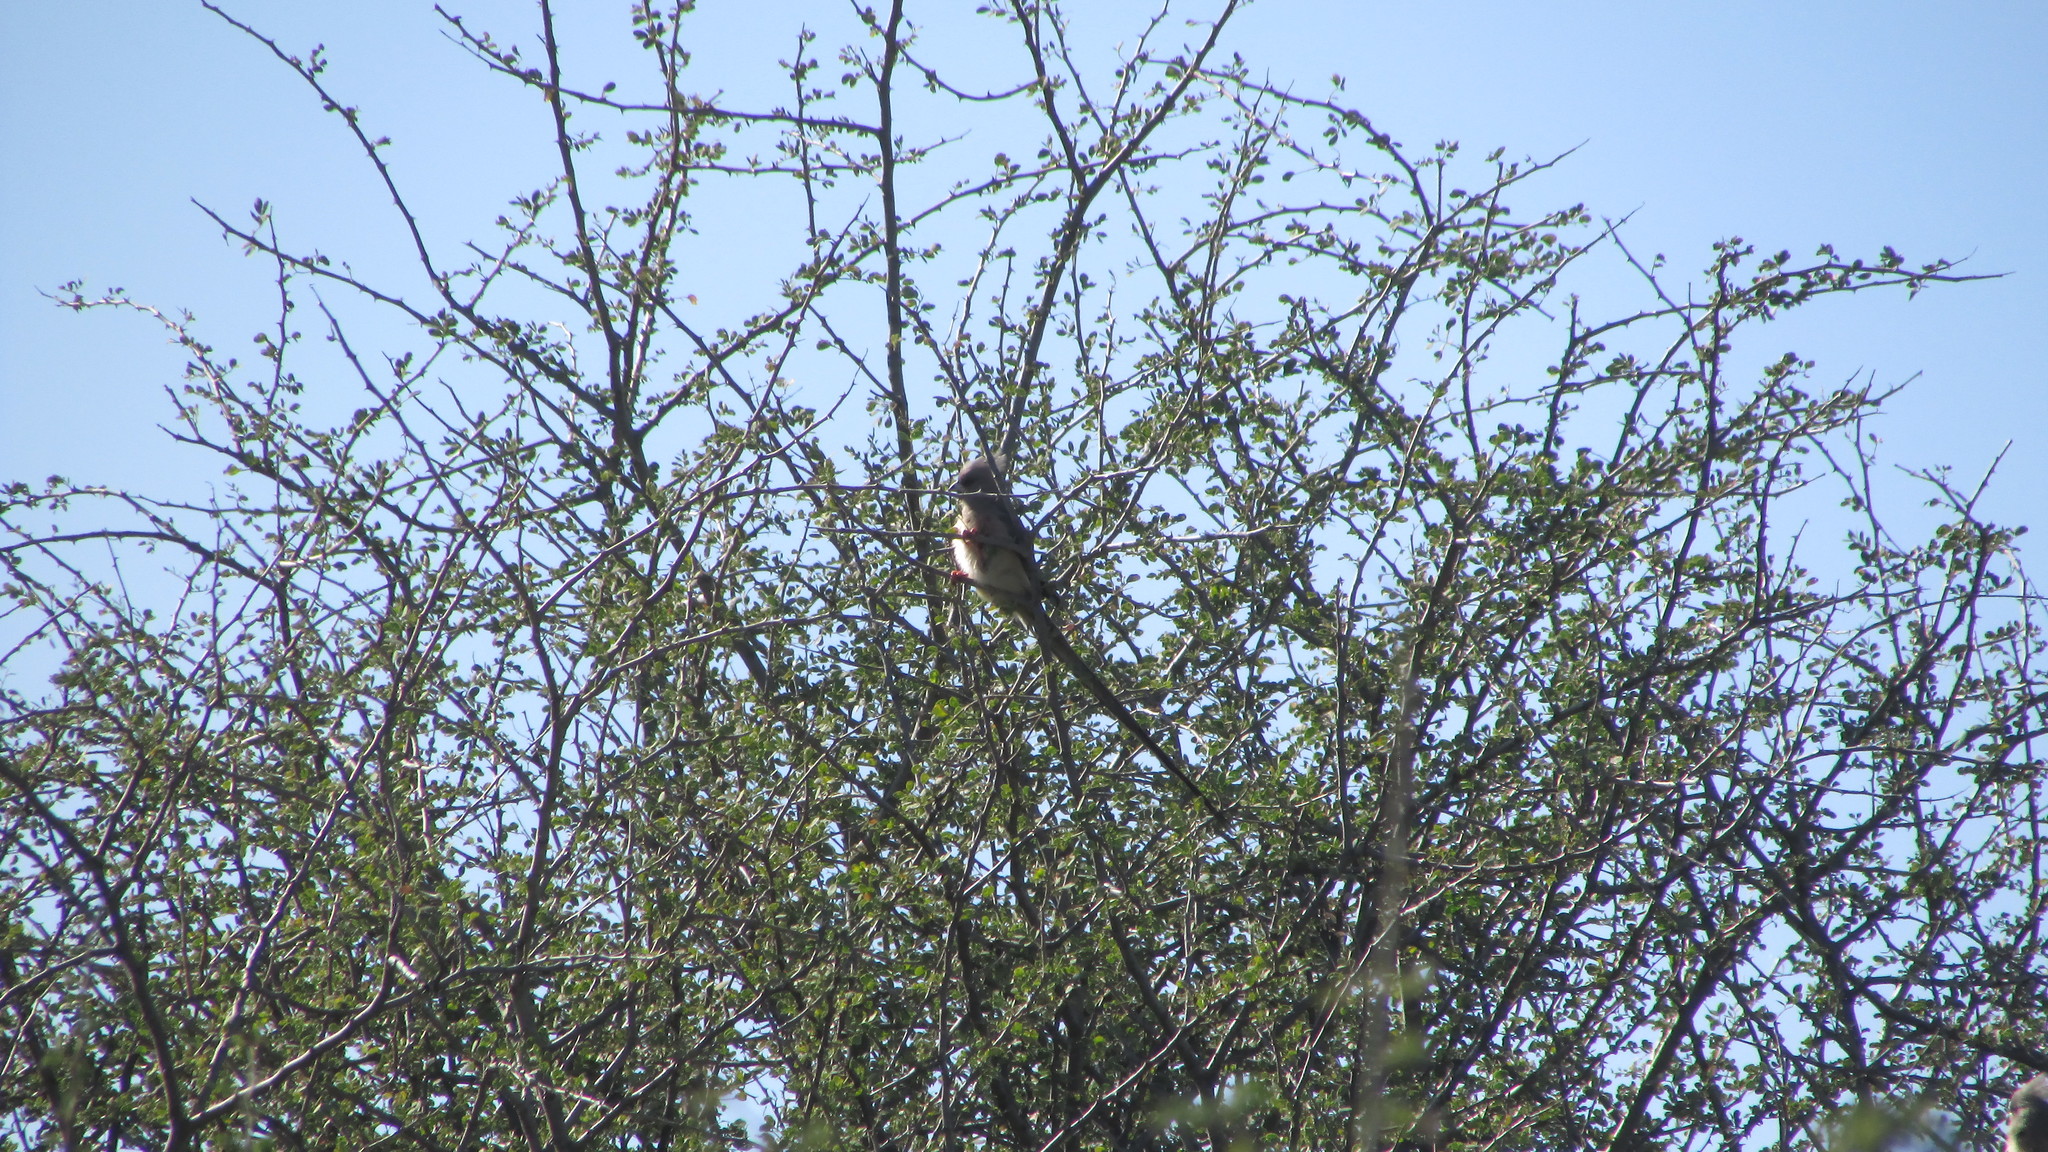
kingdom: Animalia
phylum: Chordata
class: Aves
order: Coliiformes
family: Coliidae
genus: Colius
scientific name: Colius colius
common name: White-backed mousebird
